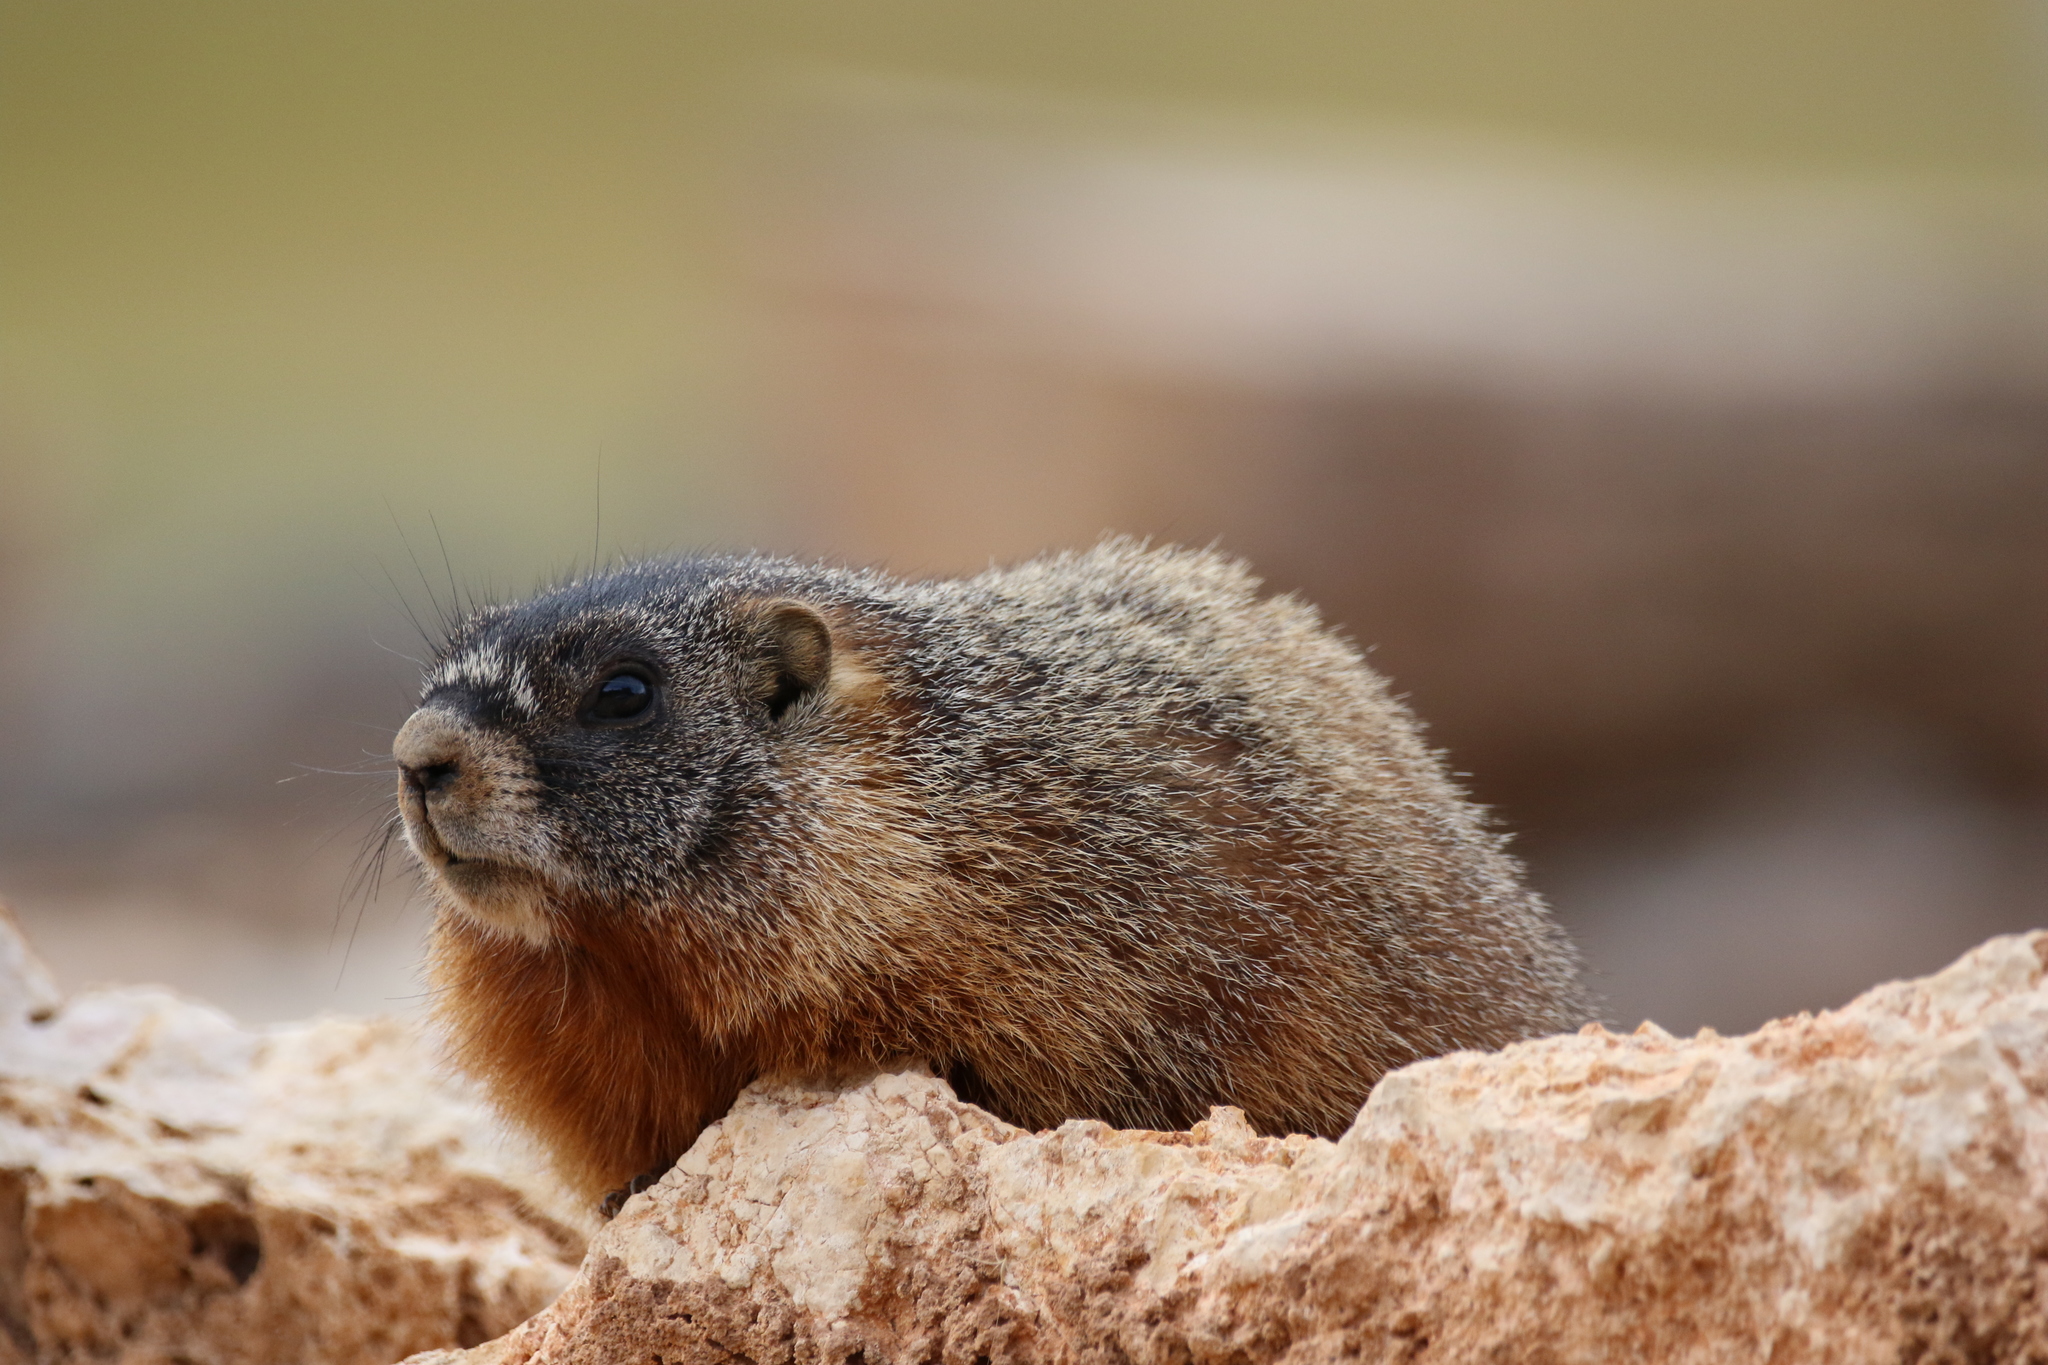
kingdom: Animalia
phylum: Chordata
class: Mammalia
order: Rodentia
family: Sciuridae
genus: Marmota
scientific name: Marmota flaviventris
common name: Yellow-bellied marmot
